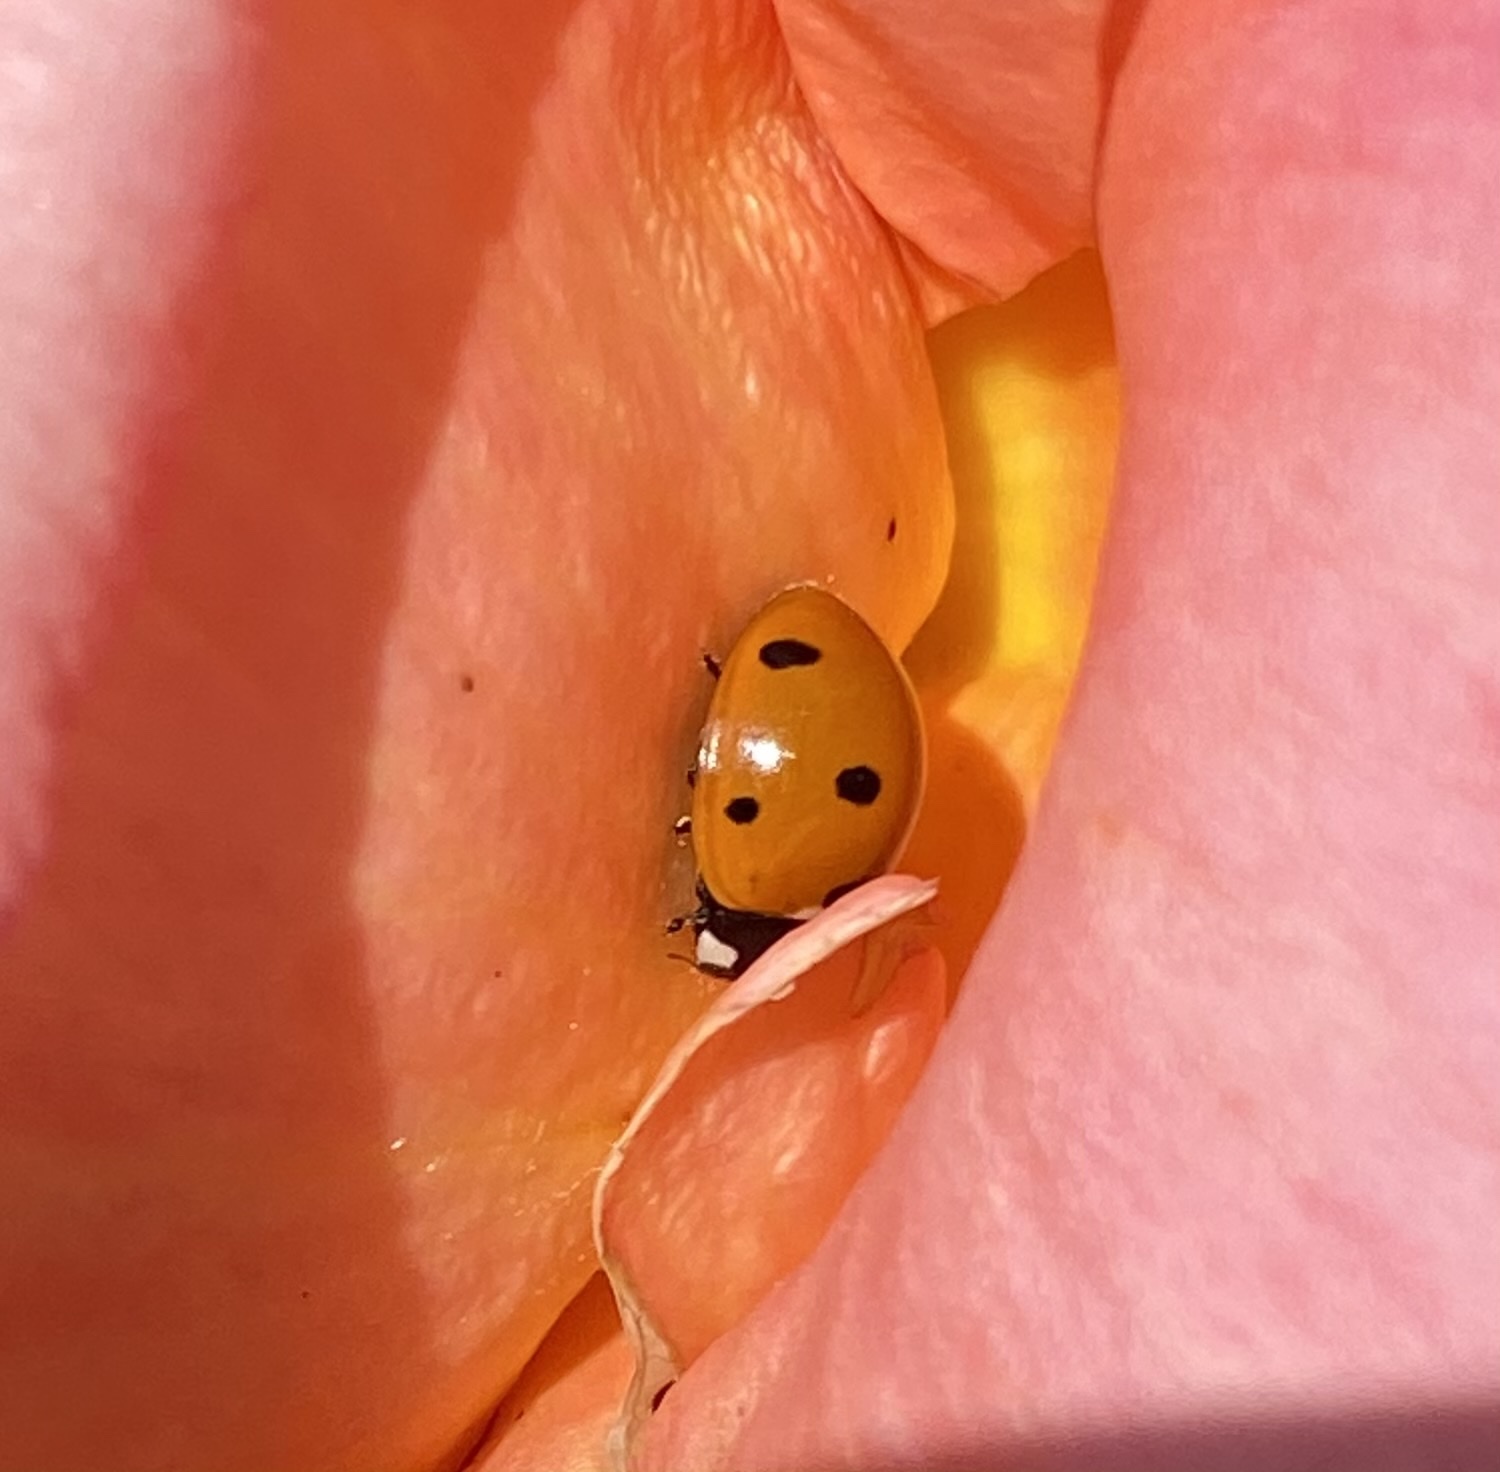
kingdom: Animalia
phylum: Arthropoda
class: Insecta
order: Coleoptera
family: Coccinellidae
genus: Coccinella
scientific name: Coccinella septempunctata
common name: Sevenspotted lady beetle
